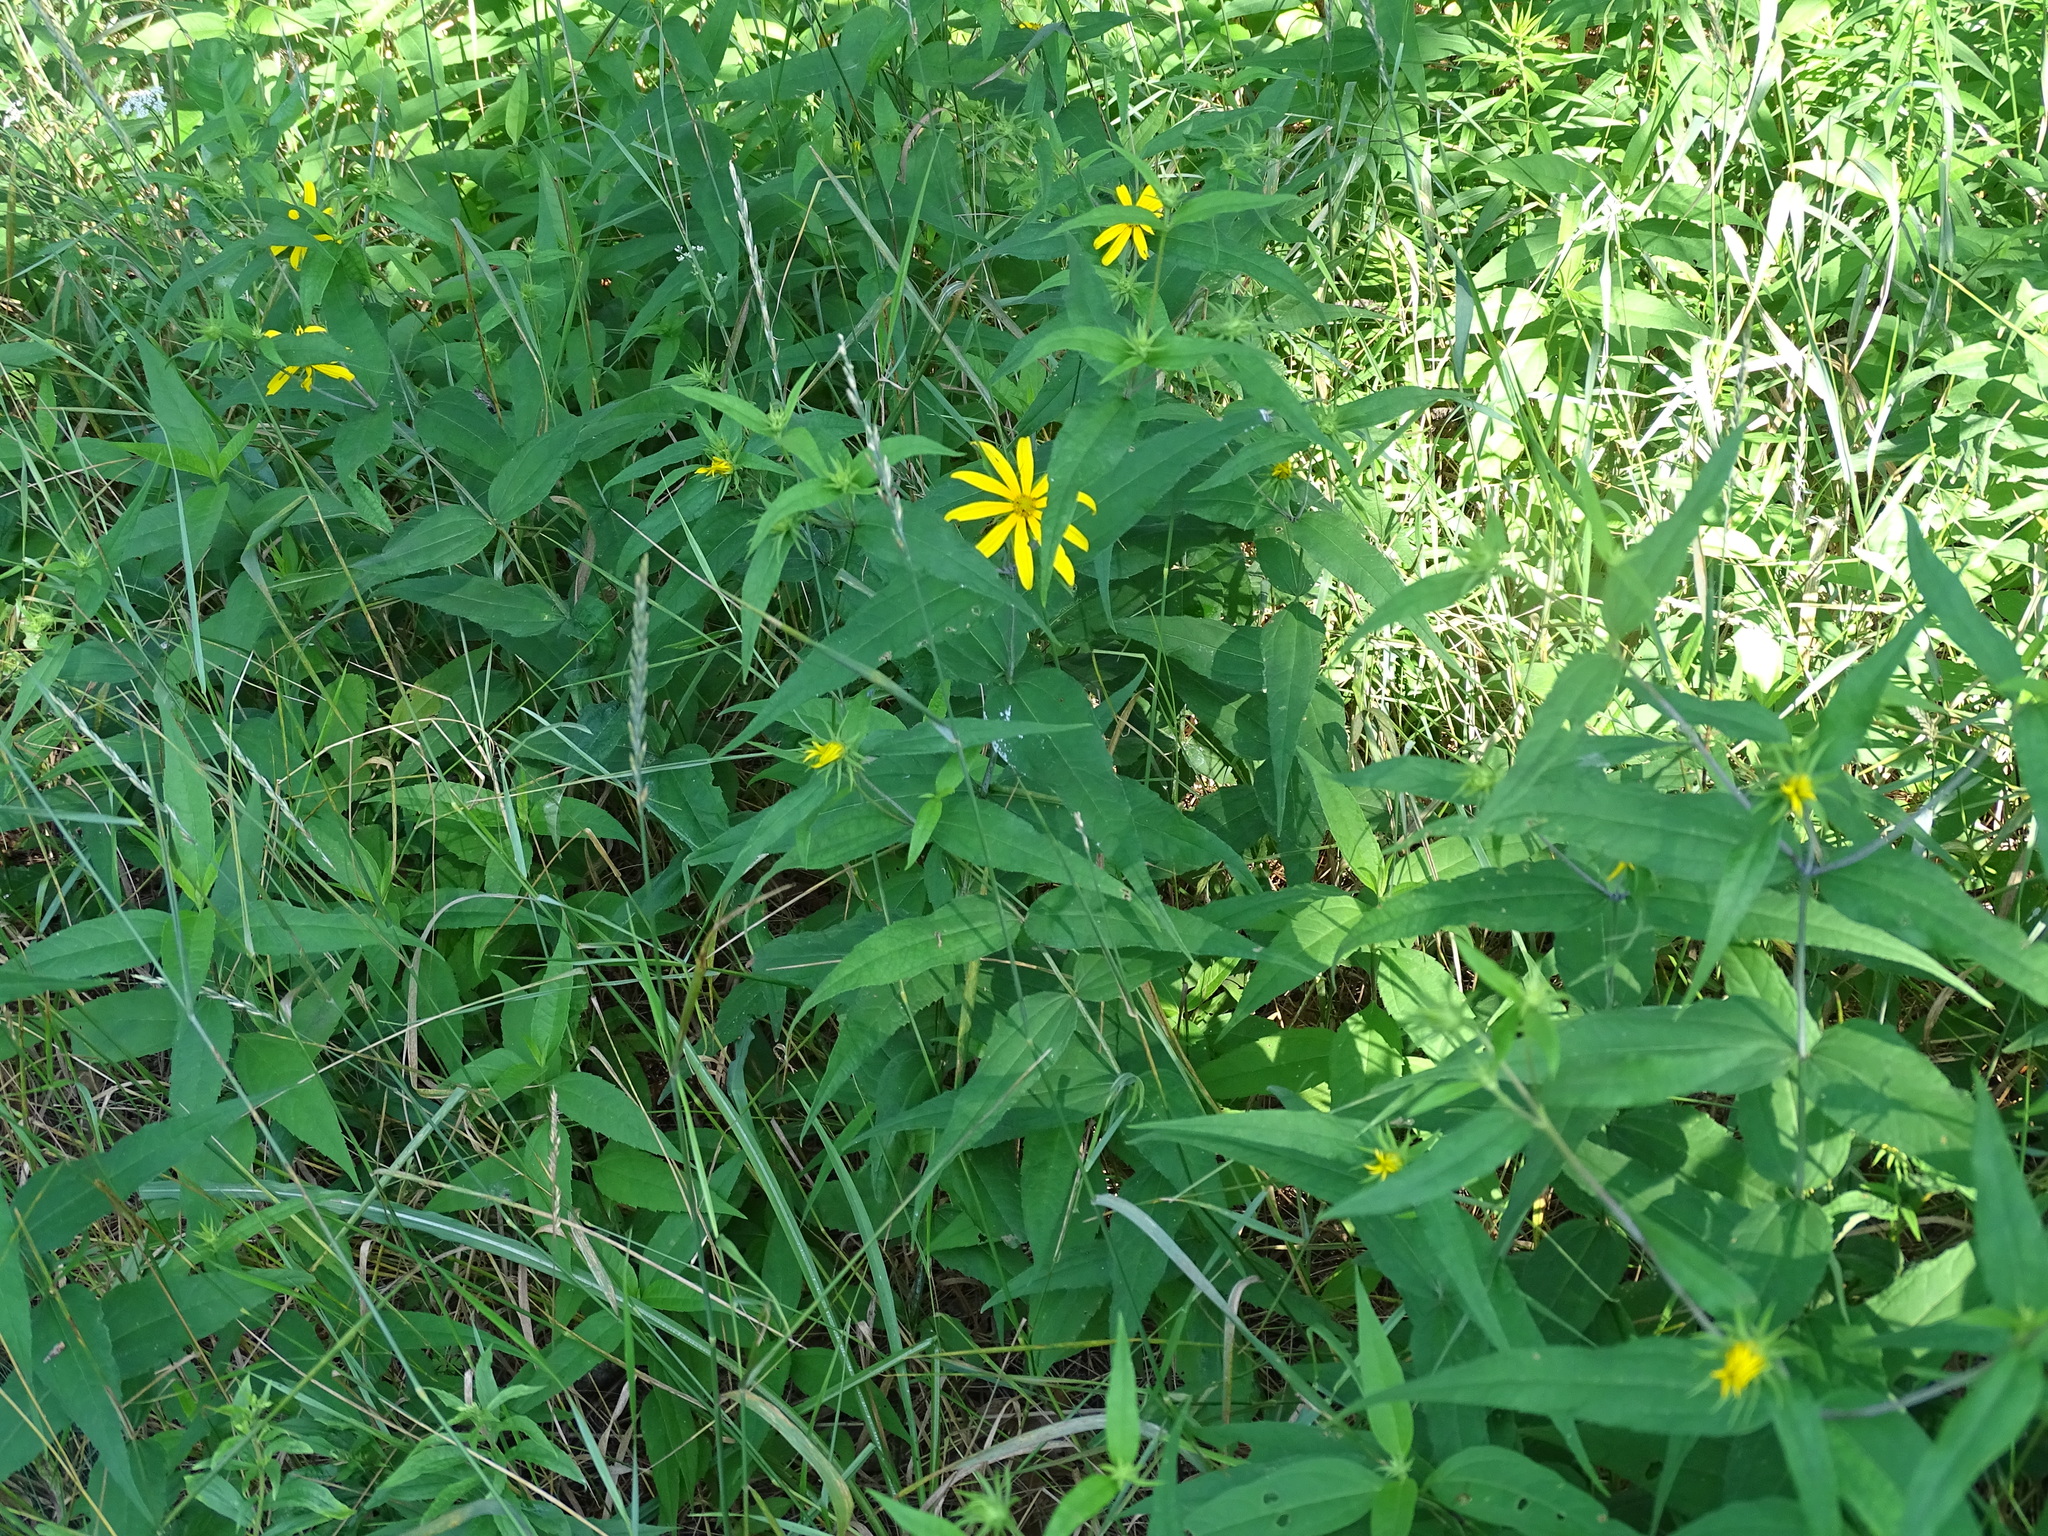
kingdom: Plantae
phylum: Tracheophyta
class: Magnoliopsida
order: Asterales
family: Asteraceae
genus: Helianthus
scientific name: Helianthus divaricatus
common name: Divergent sunflower
